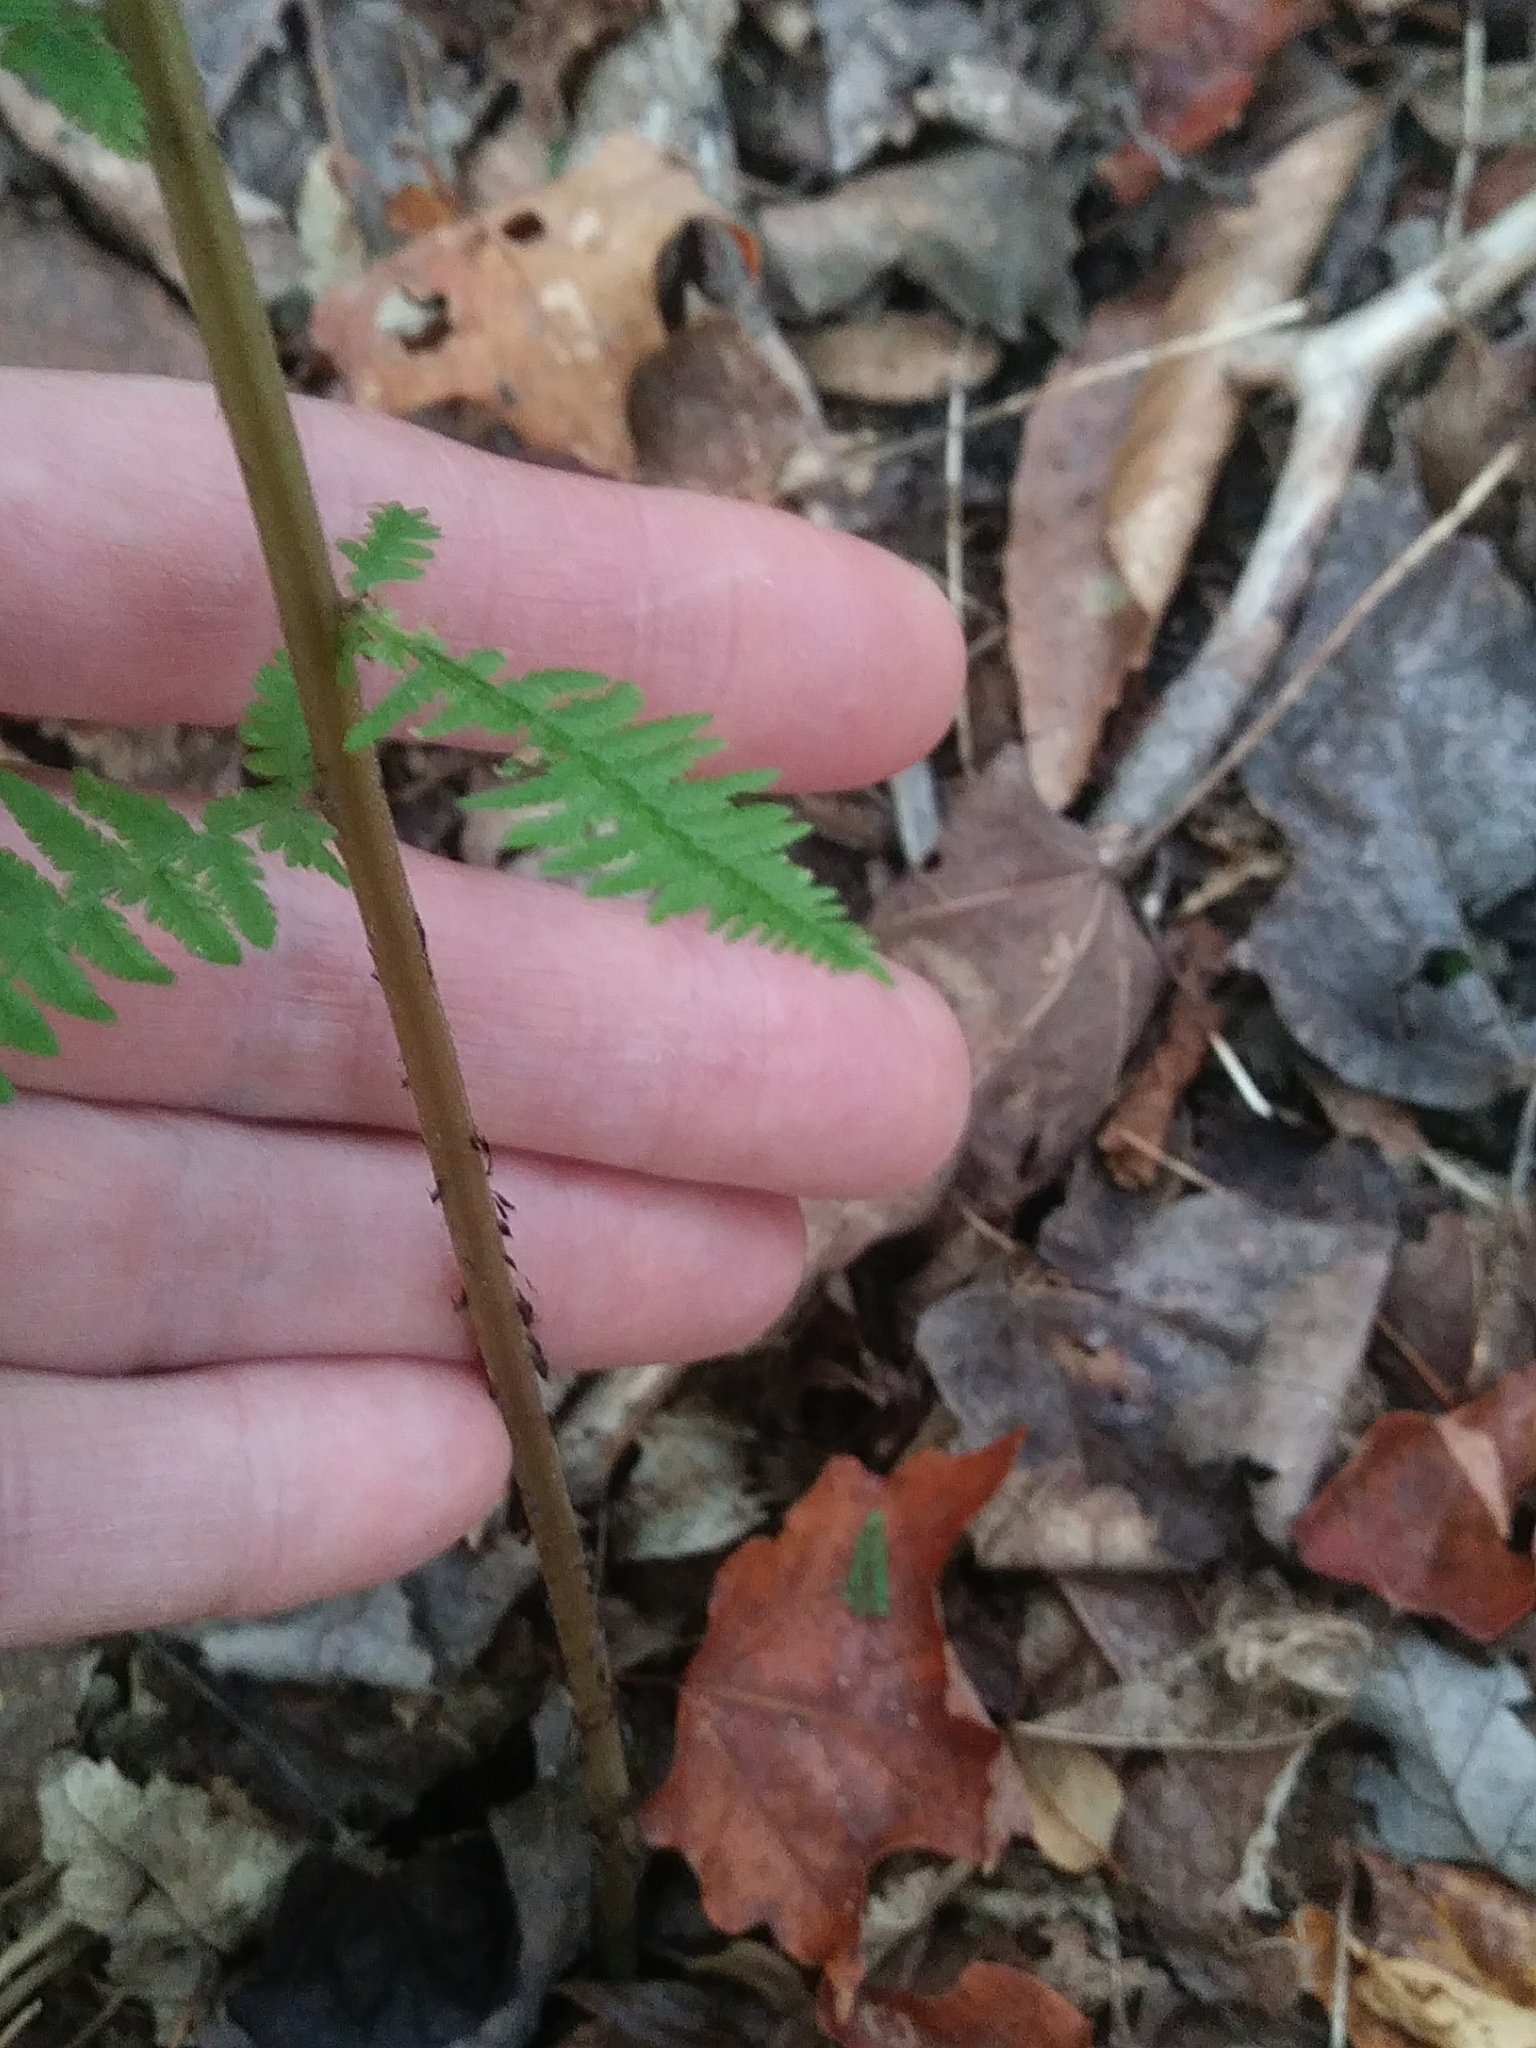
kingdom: Plantae
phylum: Tracheophyta
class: Polypodiopsida
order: Polypodiales
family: Athyriaceae
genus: Athyrium
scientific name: Athyrium angustum
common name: Northern lady fern
